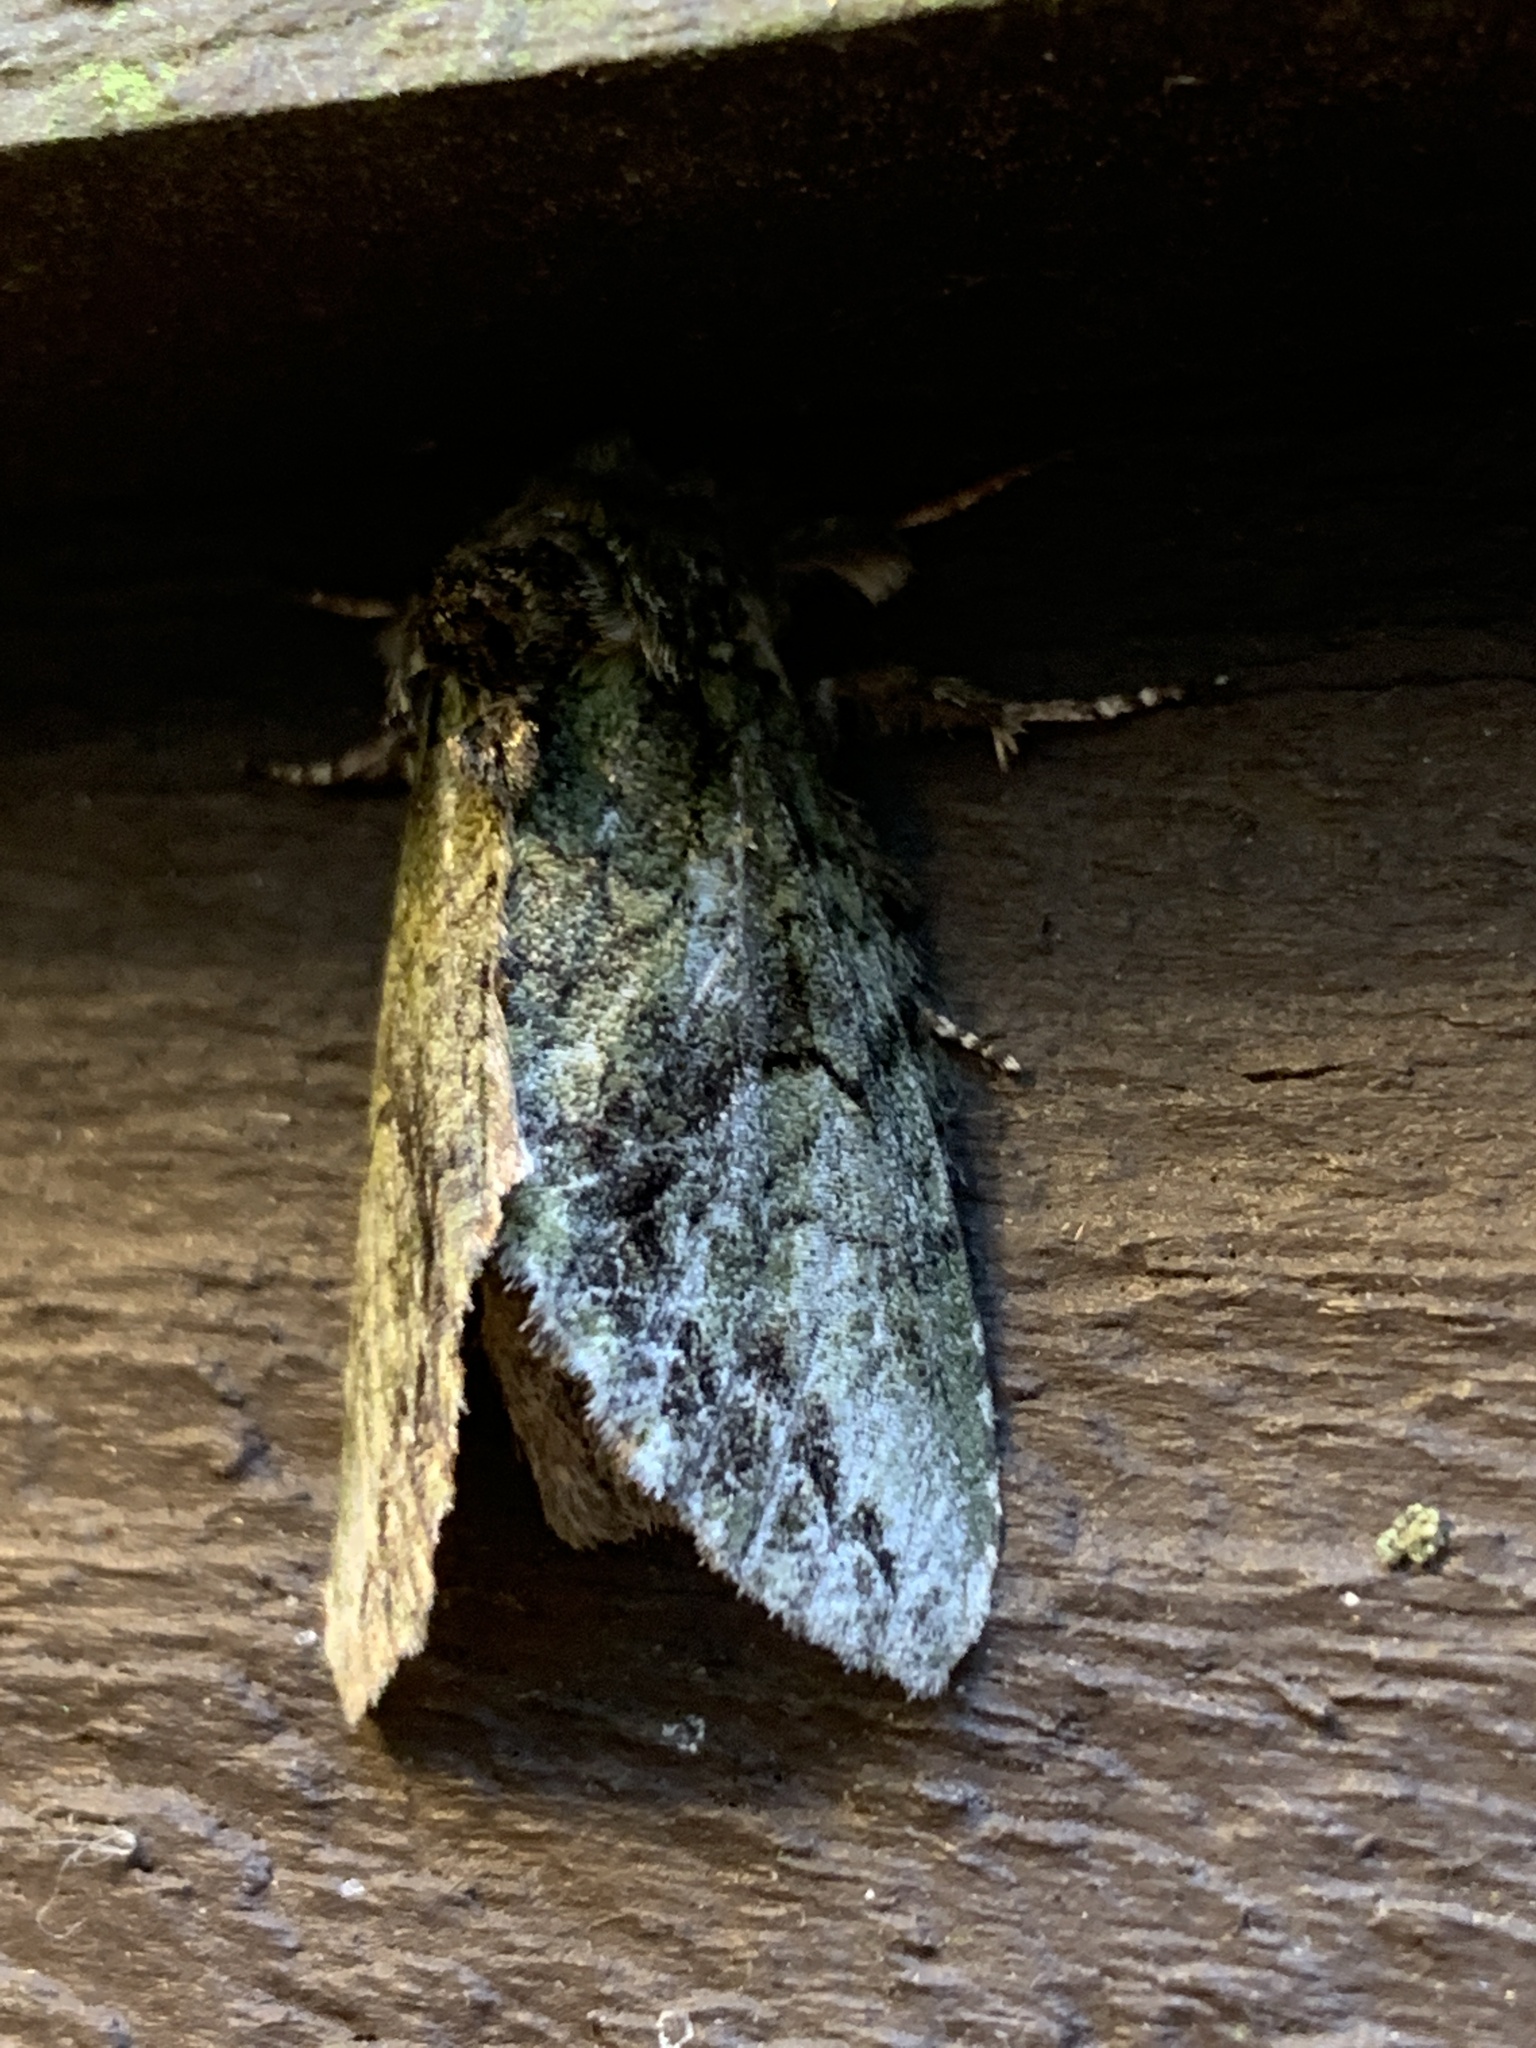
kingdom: Animalia
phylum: Arthropoda
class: Insecta
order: Lepidoptera
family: Notodontidae
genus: Heterocampa
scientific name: Heterocampa
